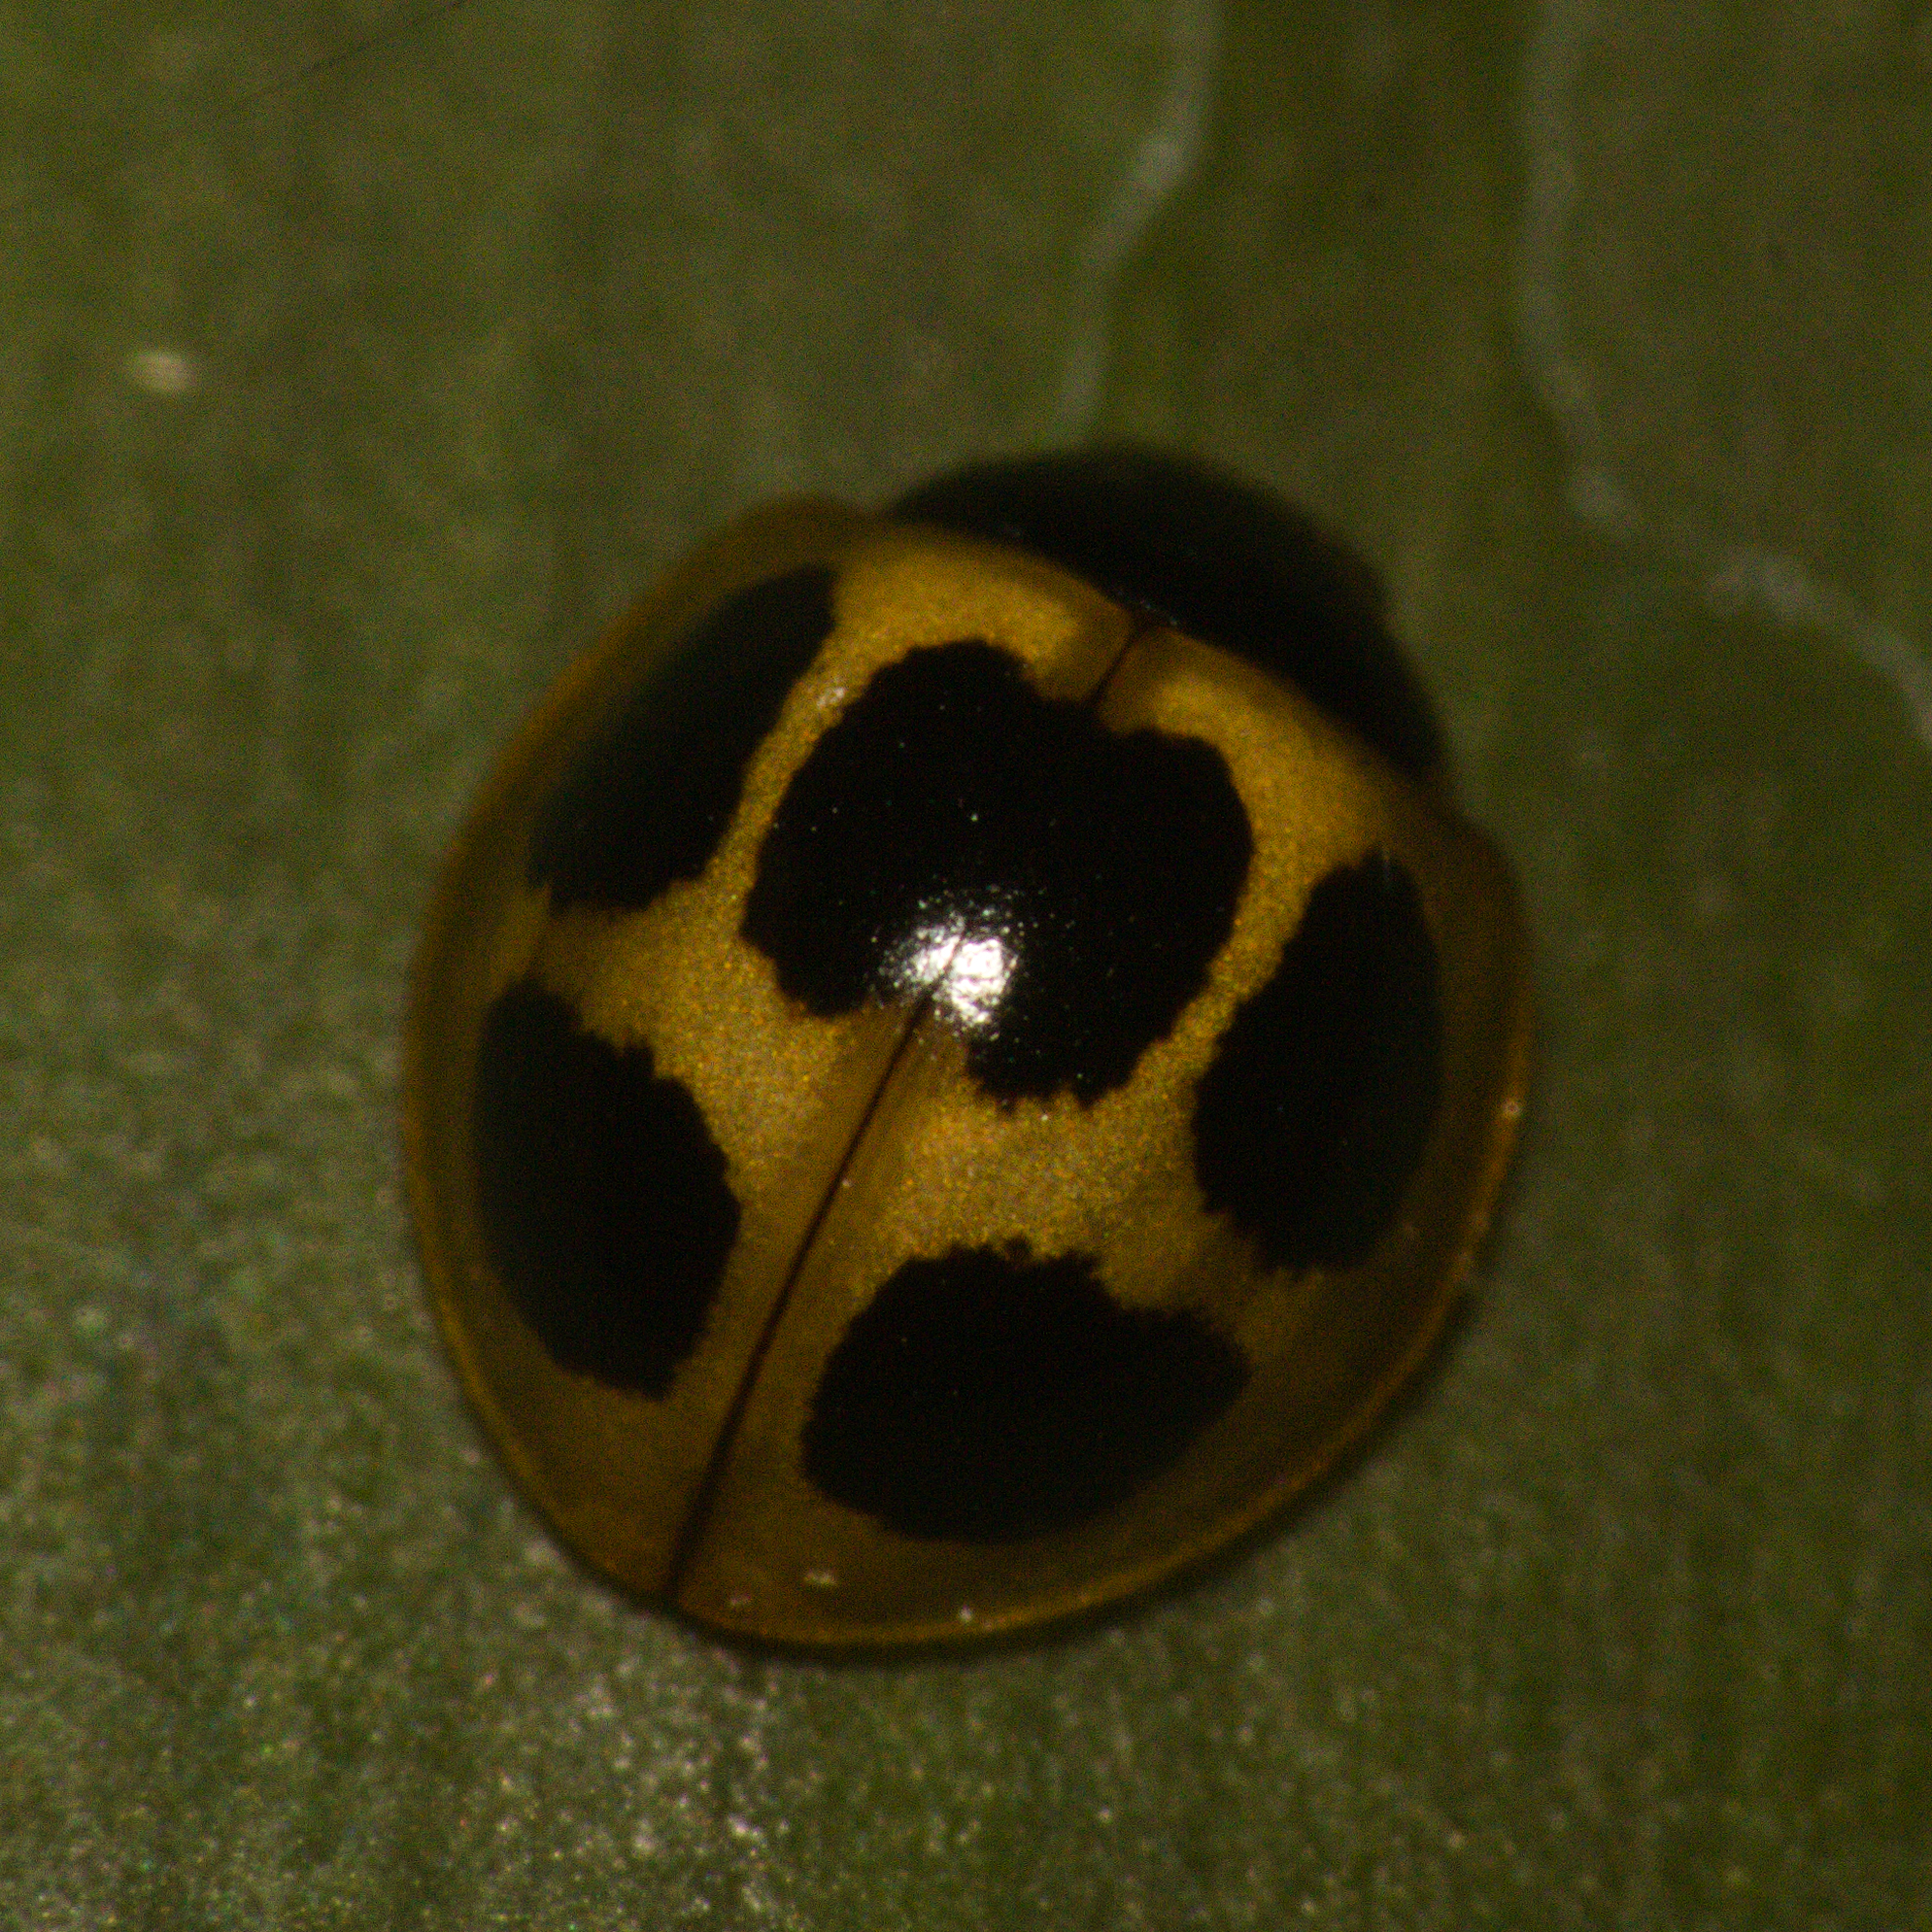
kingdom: Animalia
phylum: Arthropoda
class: Insecta
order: Coleoptera
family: Coccinellidae
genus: Zagreus
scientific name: Zagreus
